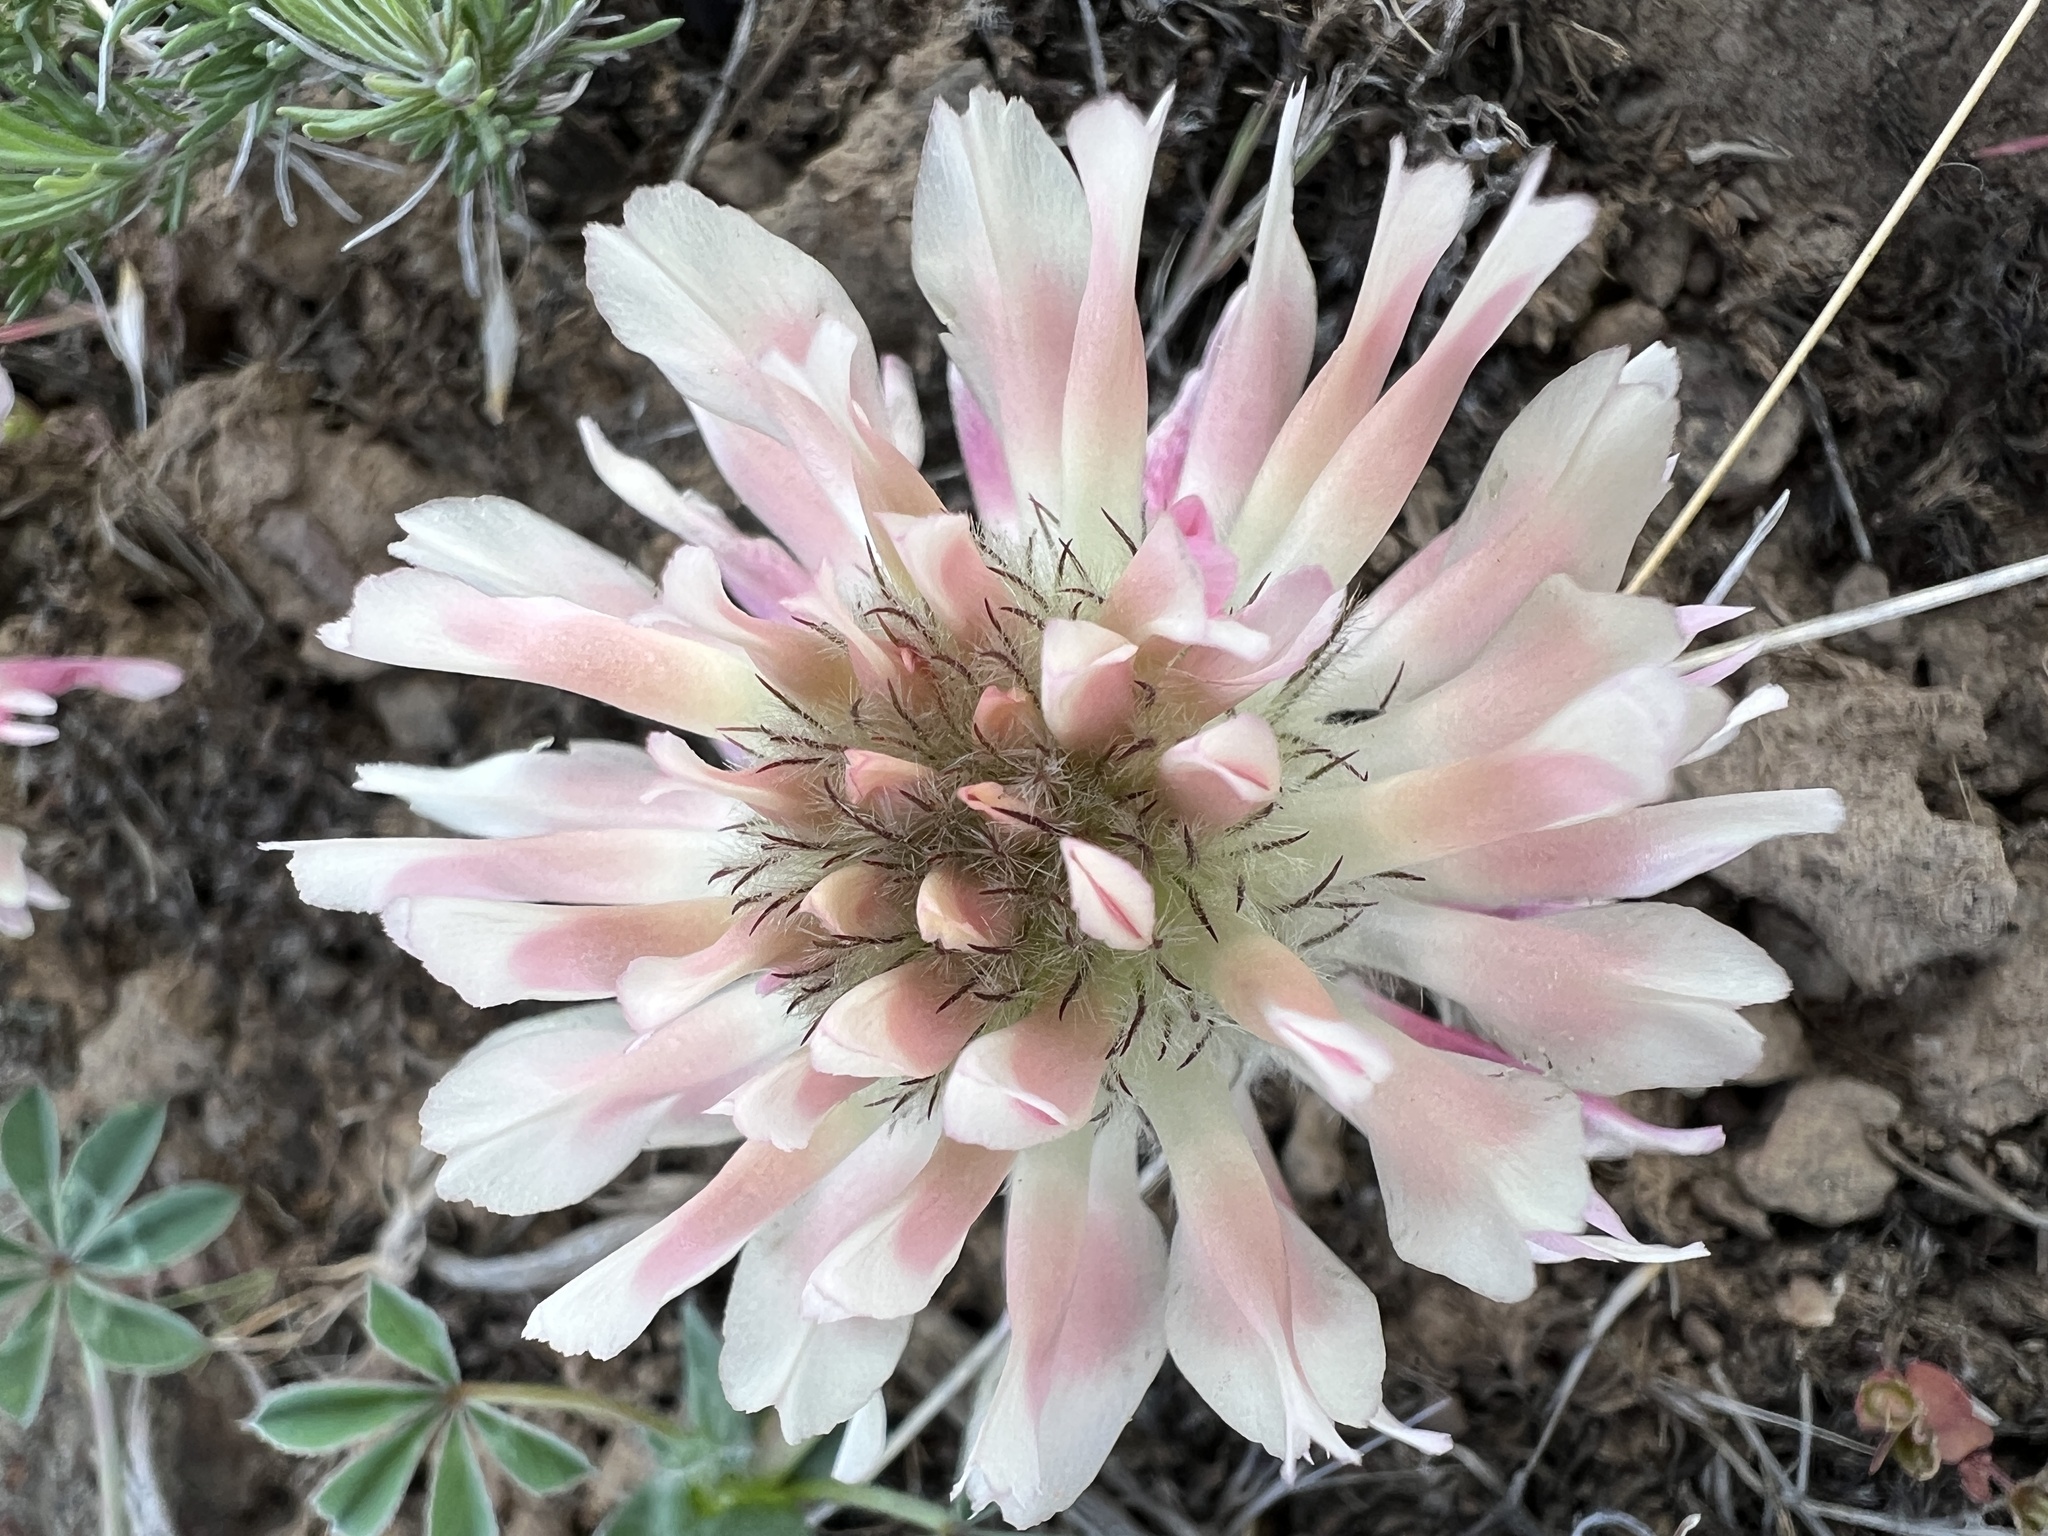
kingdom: Plantae
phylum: Tracheophyta
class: Magnoliopsida
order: Fabales
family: Fabaceae
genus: Trifolium
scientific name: Trifolium macrocephalum
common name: Large-head clover
